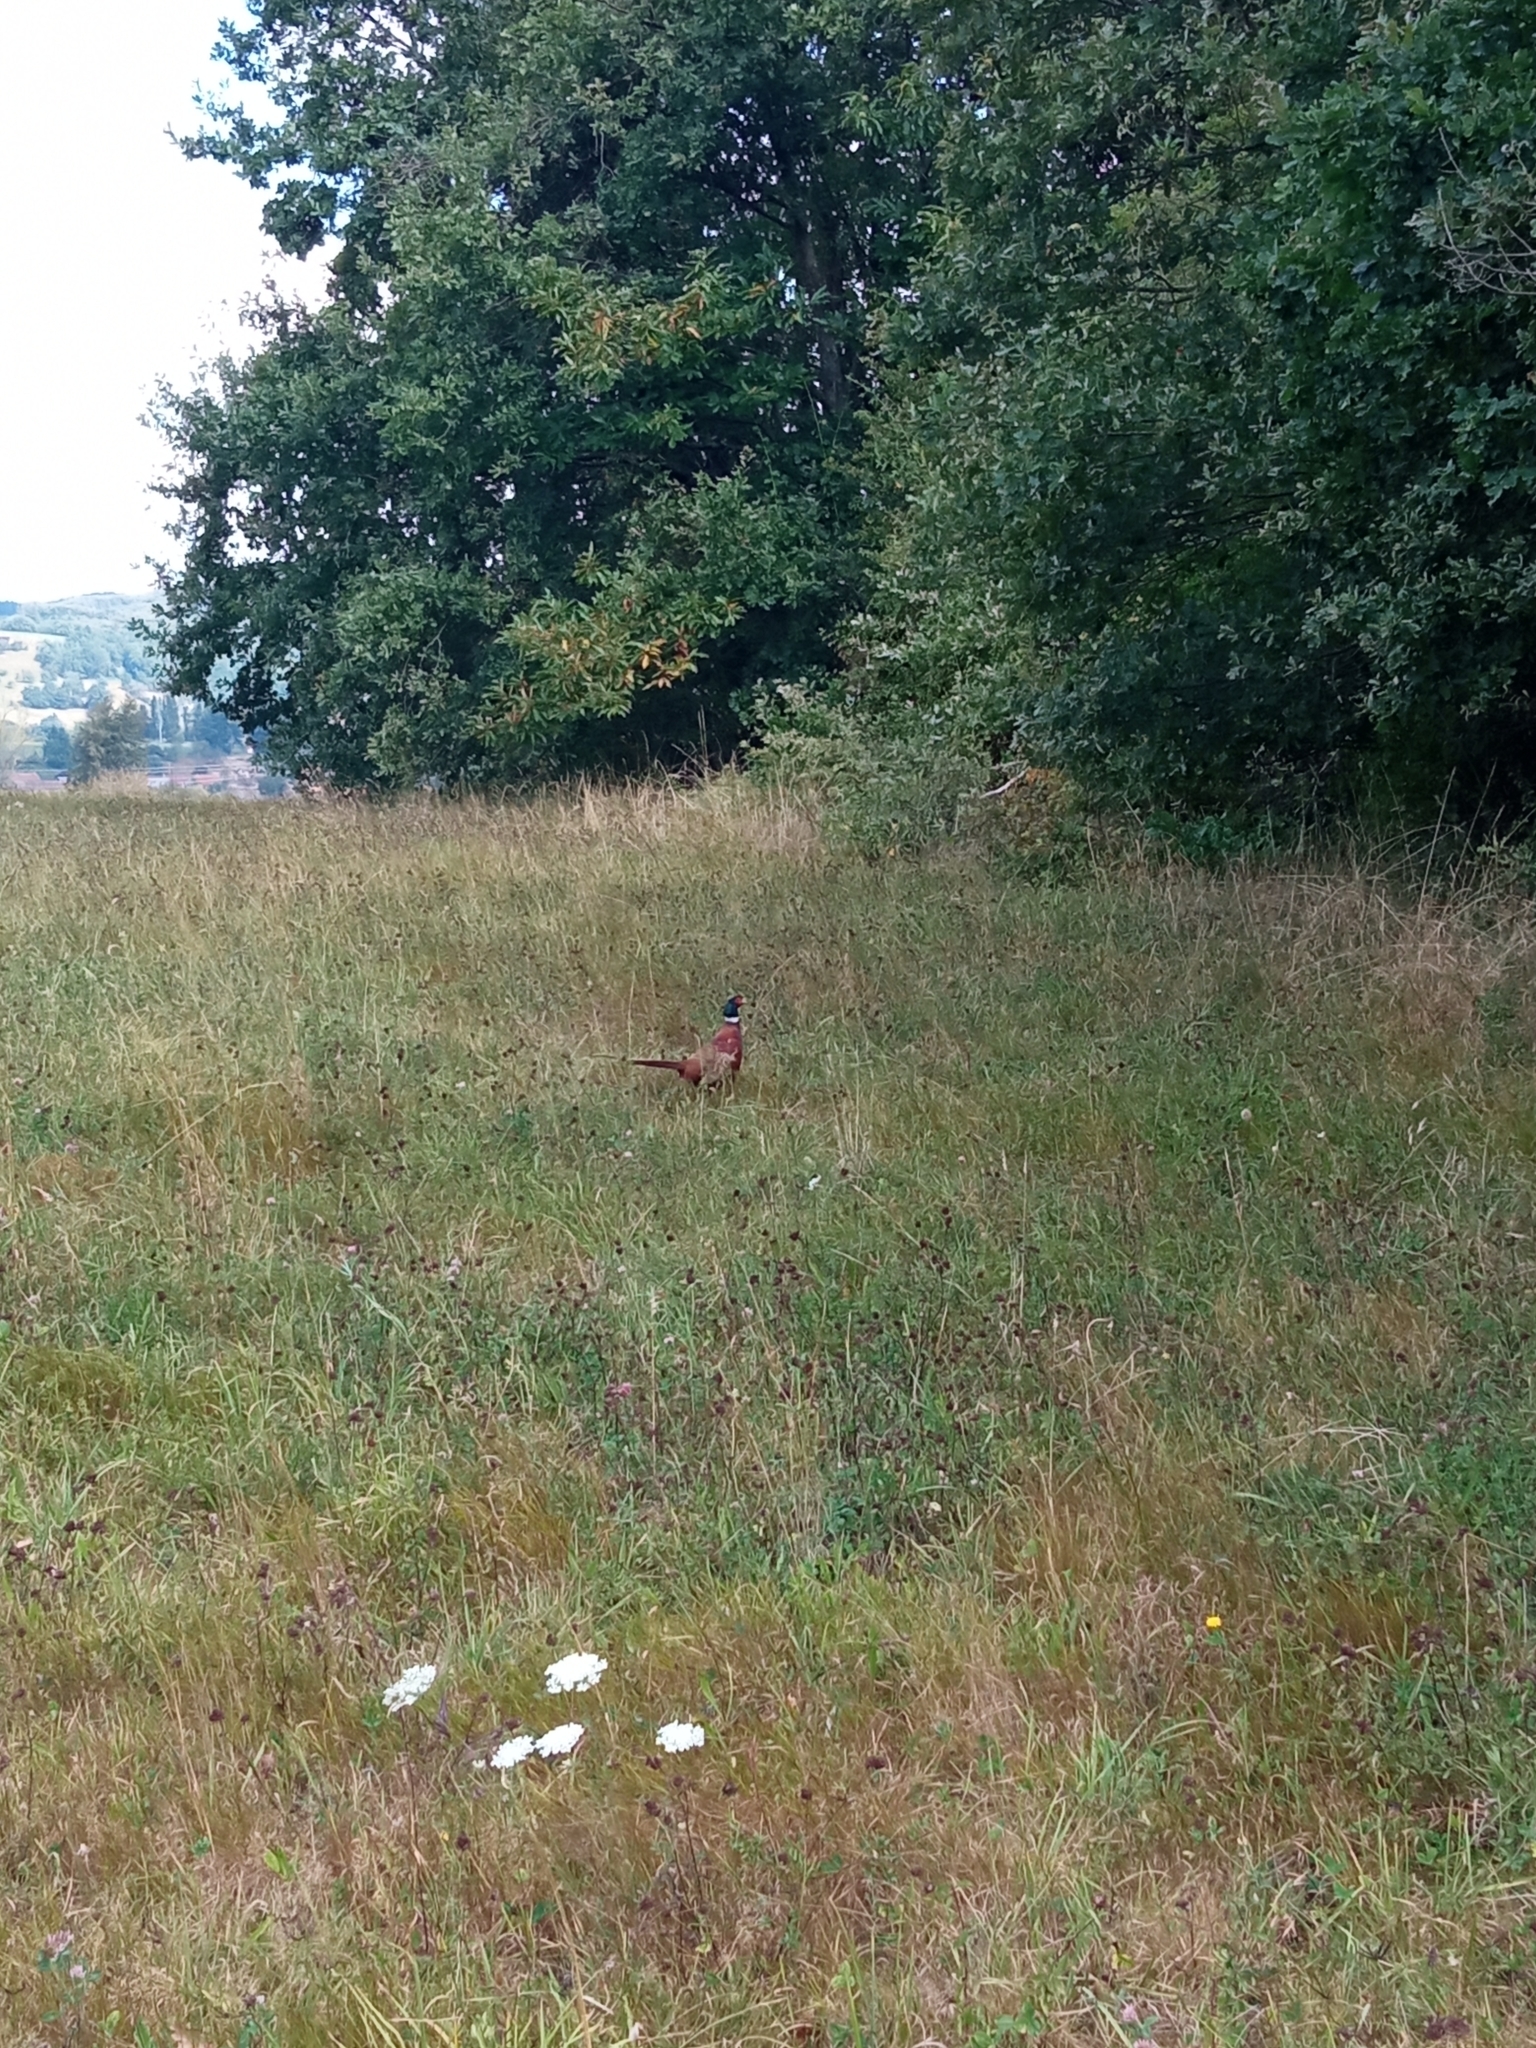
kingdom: Animalia
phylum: Chordata
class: Aves
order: Galliformes
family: Phasianidae
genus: Phasianus
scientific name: Phasianus colchicus
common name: Common pheasant
